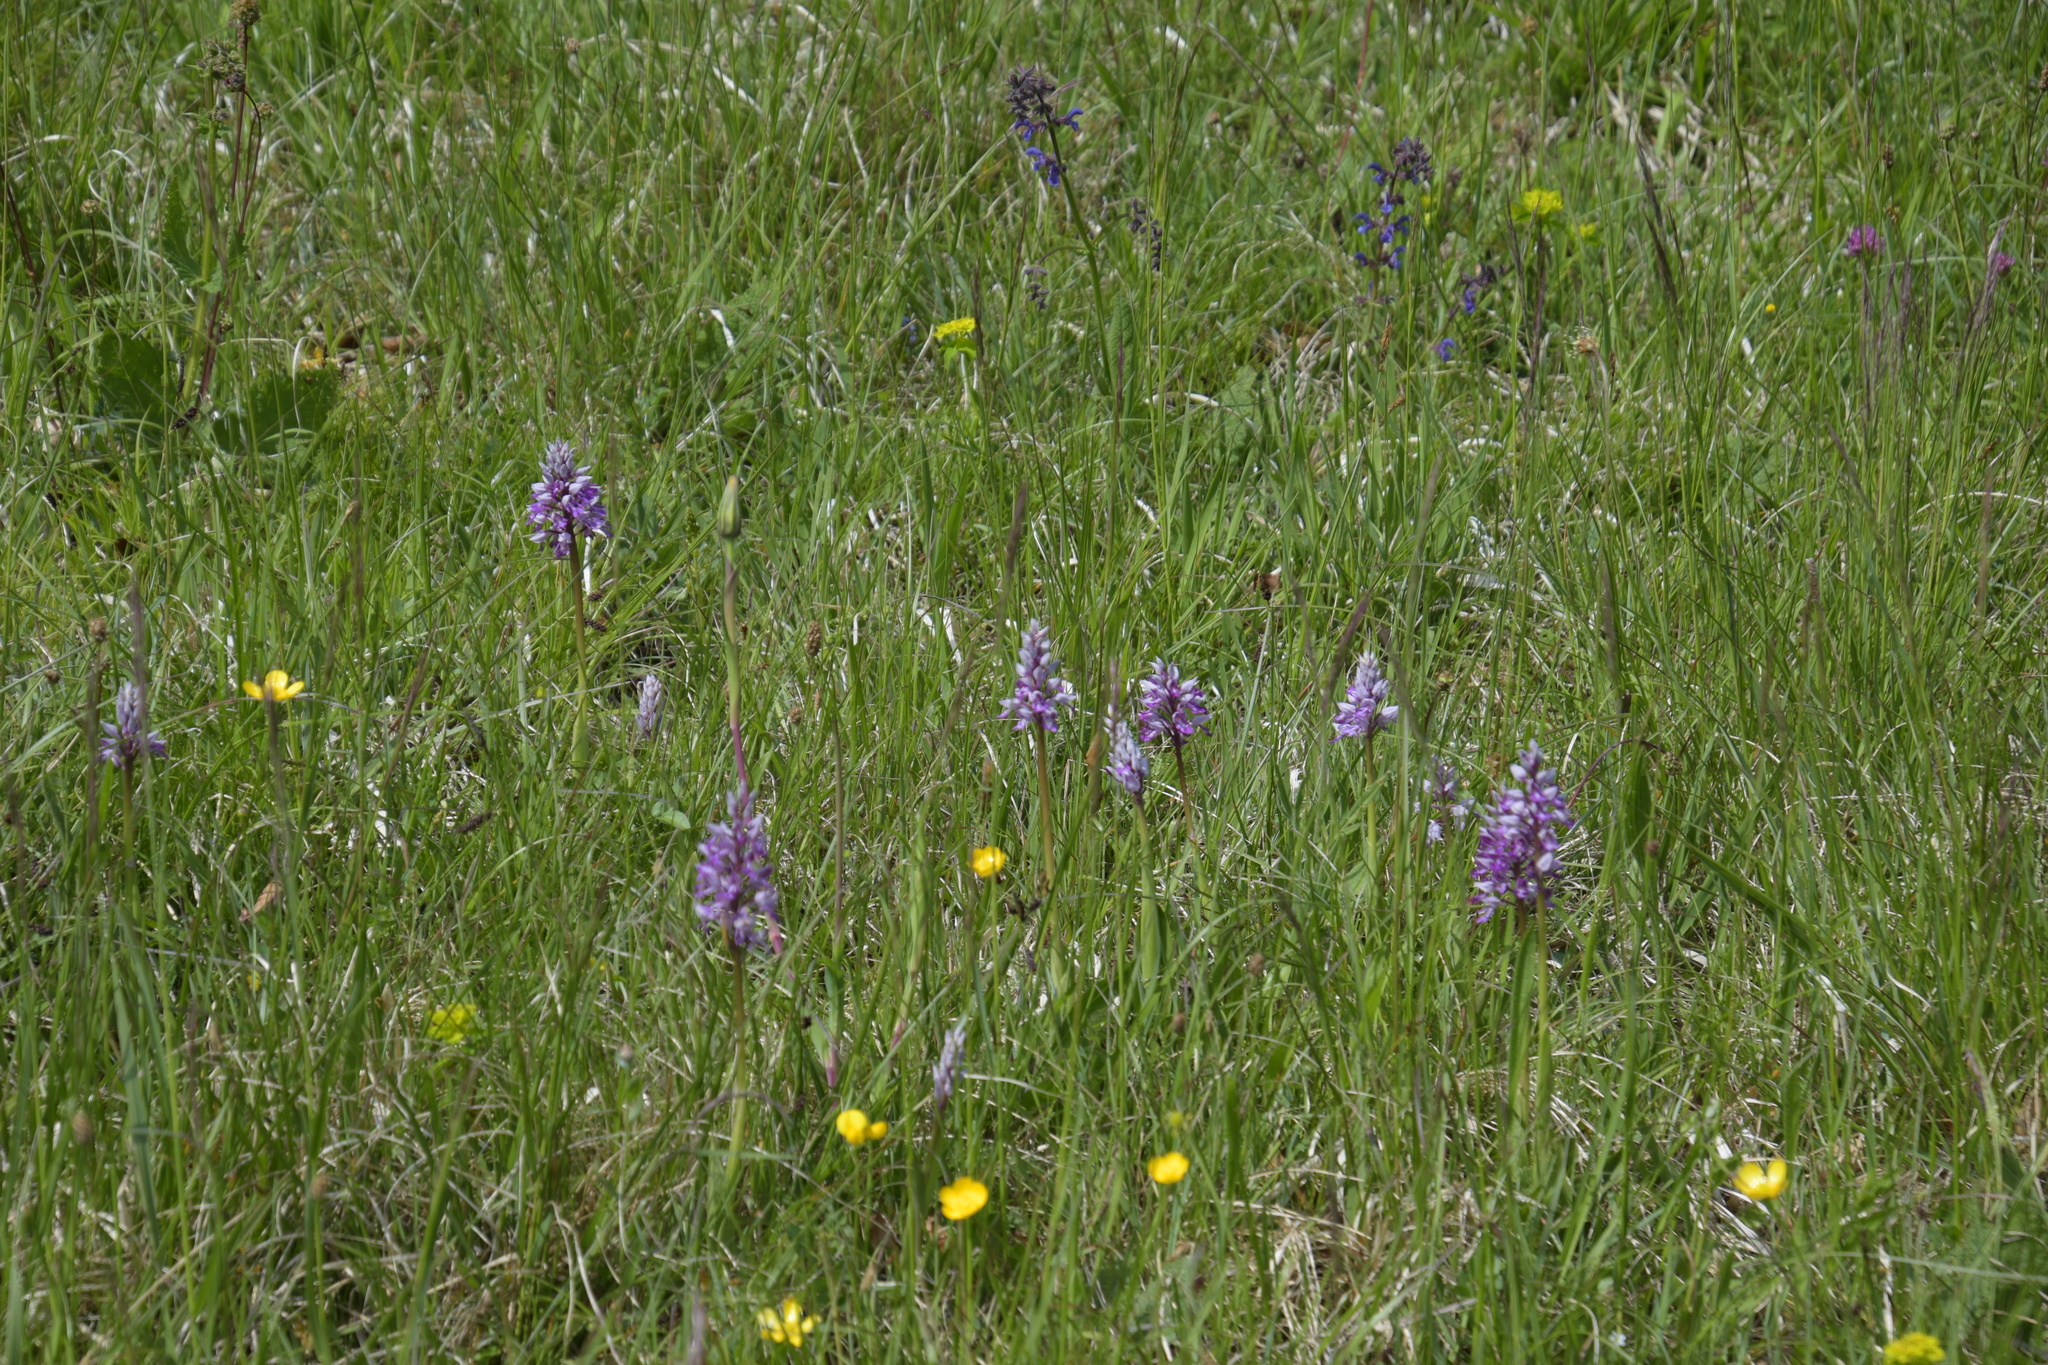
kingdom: Plantae
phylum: Tracheophyta
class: Liliopsida
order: Asparagales
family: Orchidaceae
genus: Orchis
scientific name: Orchis militaris
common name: Military orchid
